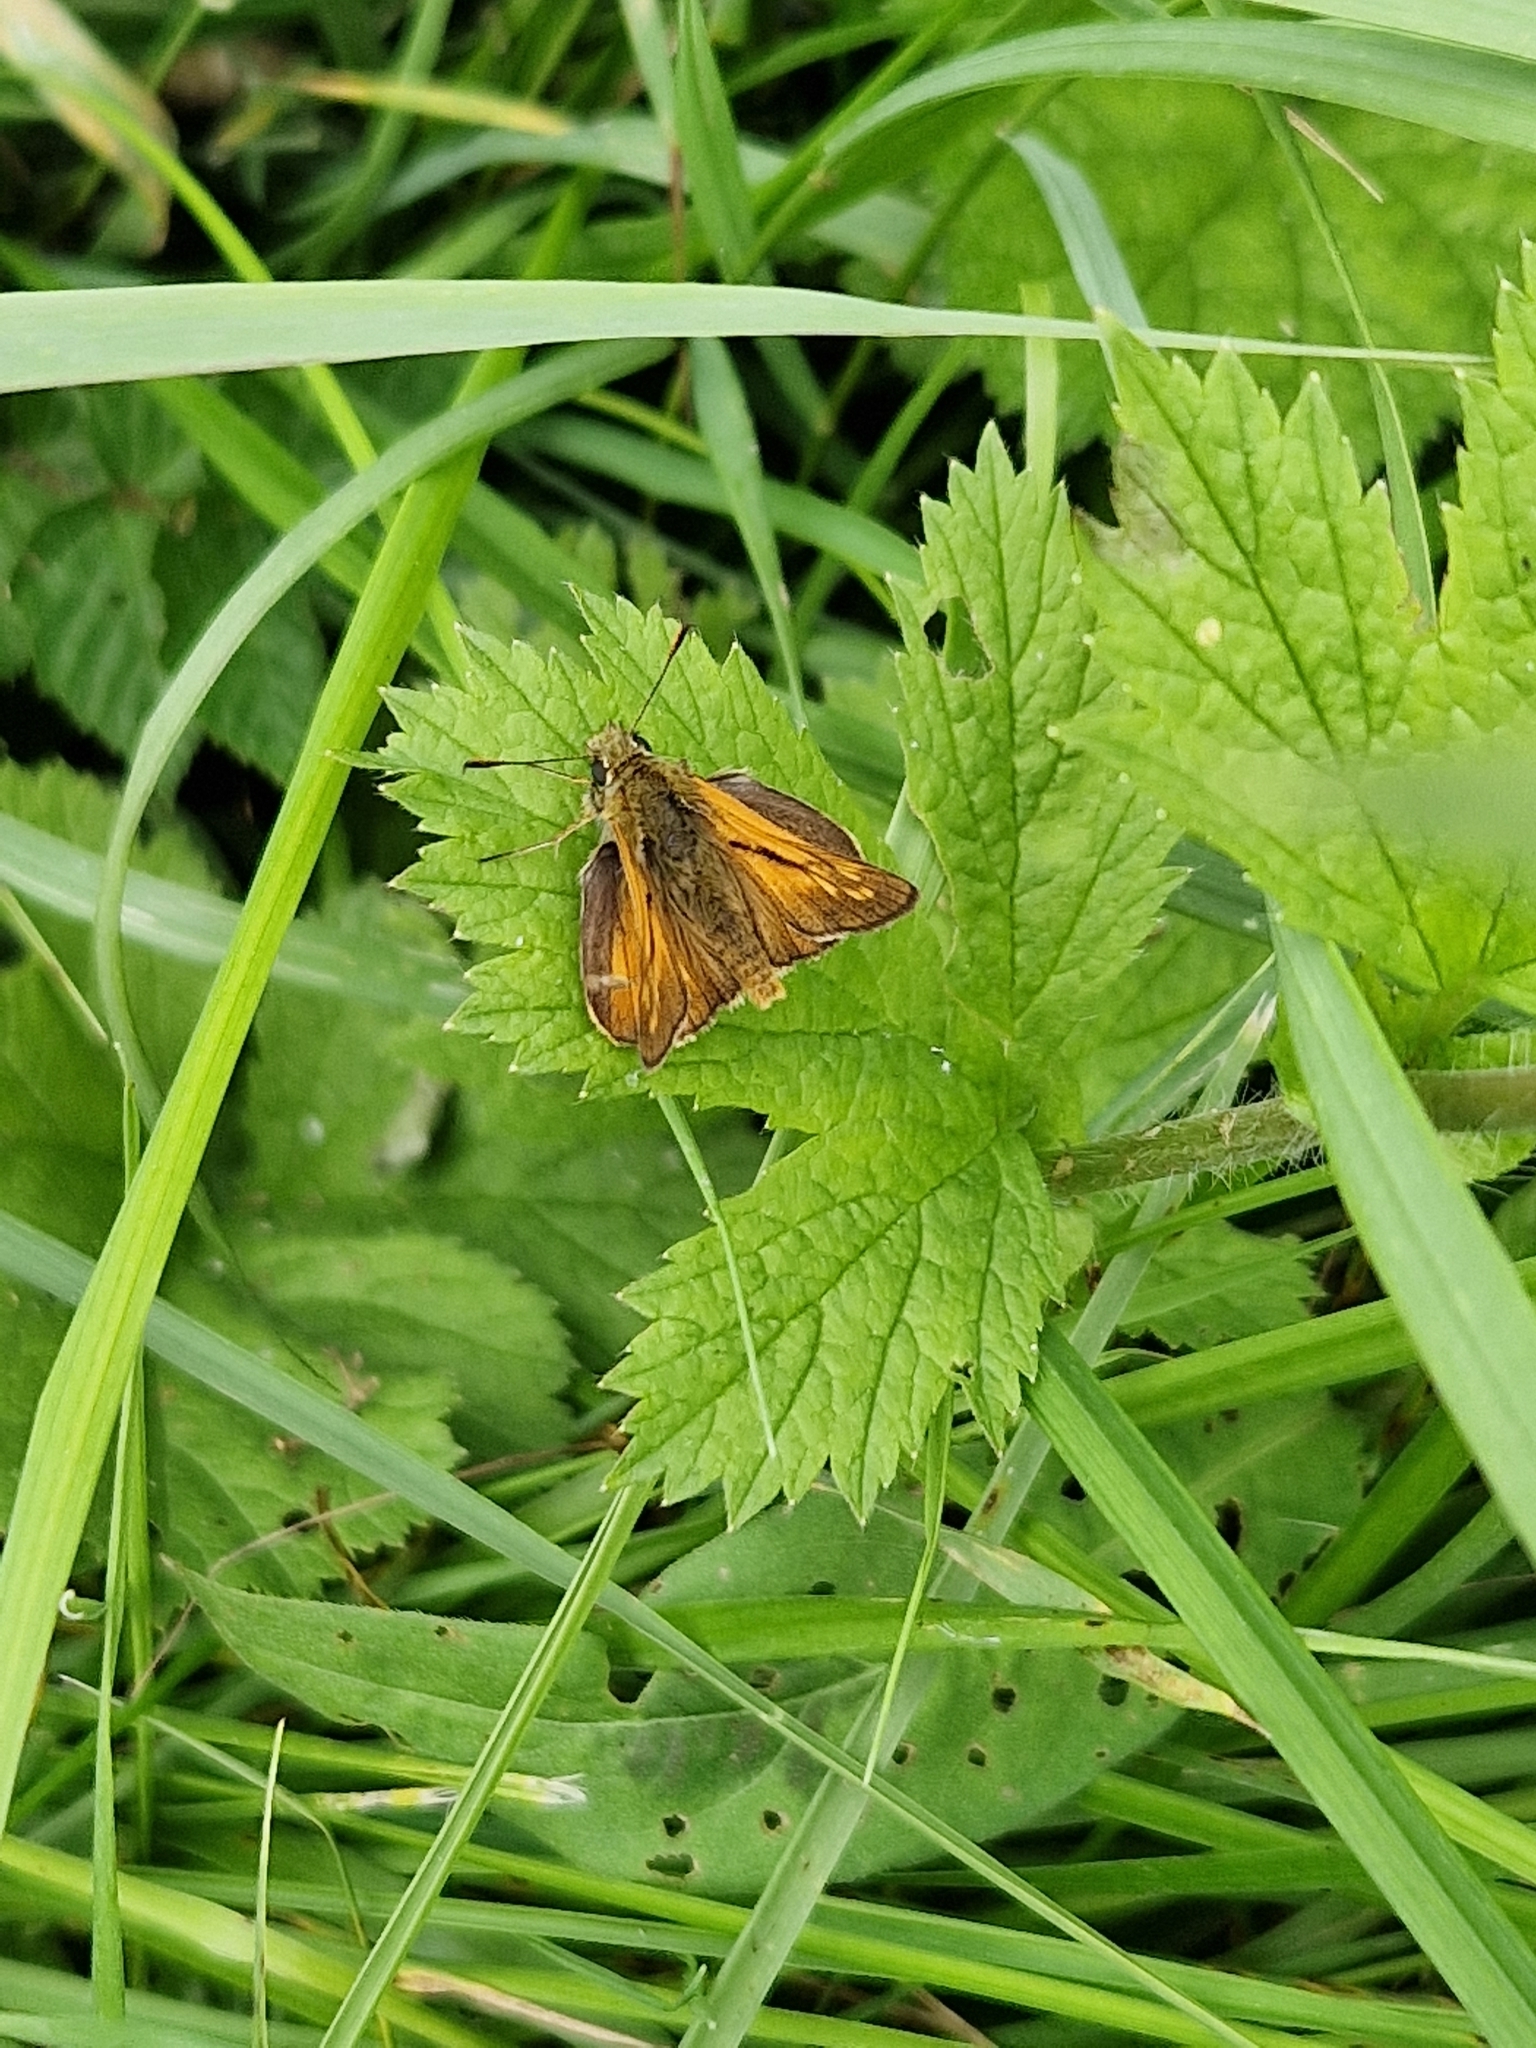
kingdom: Animalia
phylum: Arthropoda
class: Insecta
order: Lepidoptera
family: Hesperiidae
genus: Ochlodes
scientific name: Ochlodes venata
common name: Large skipper
